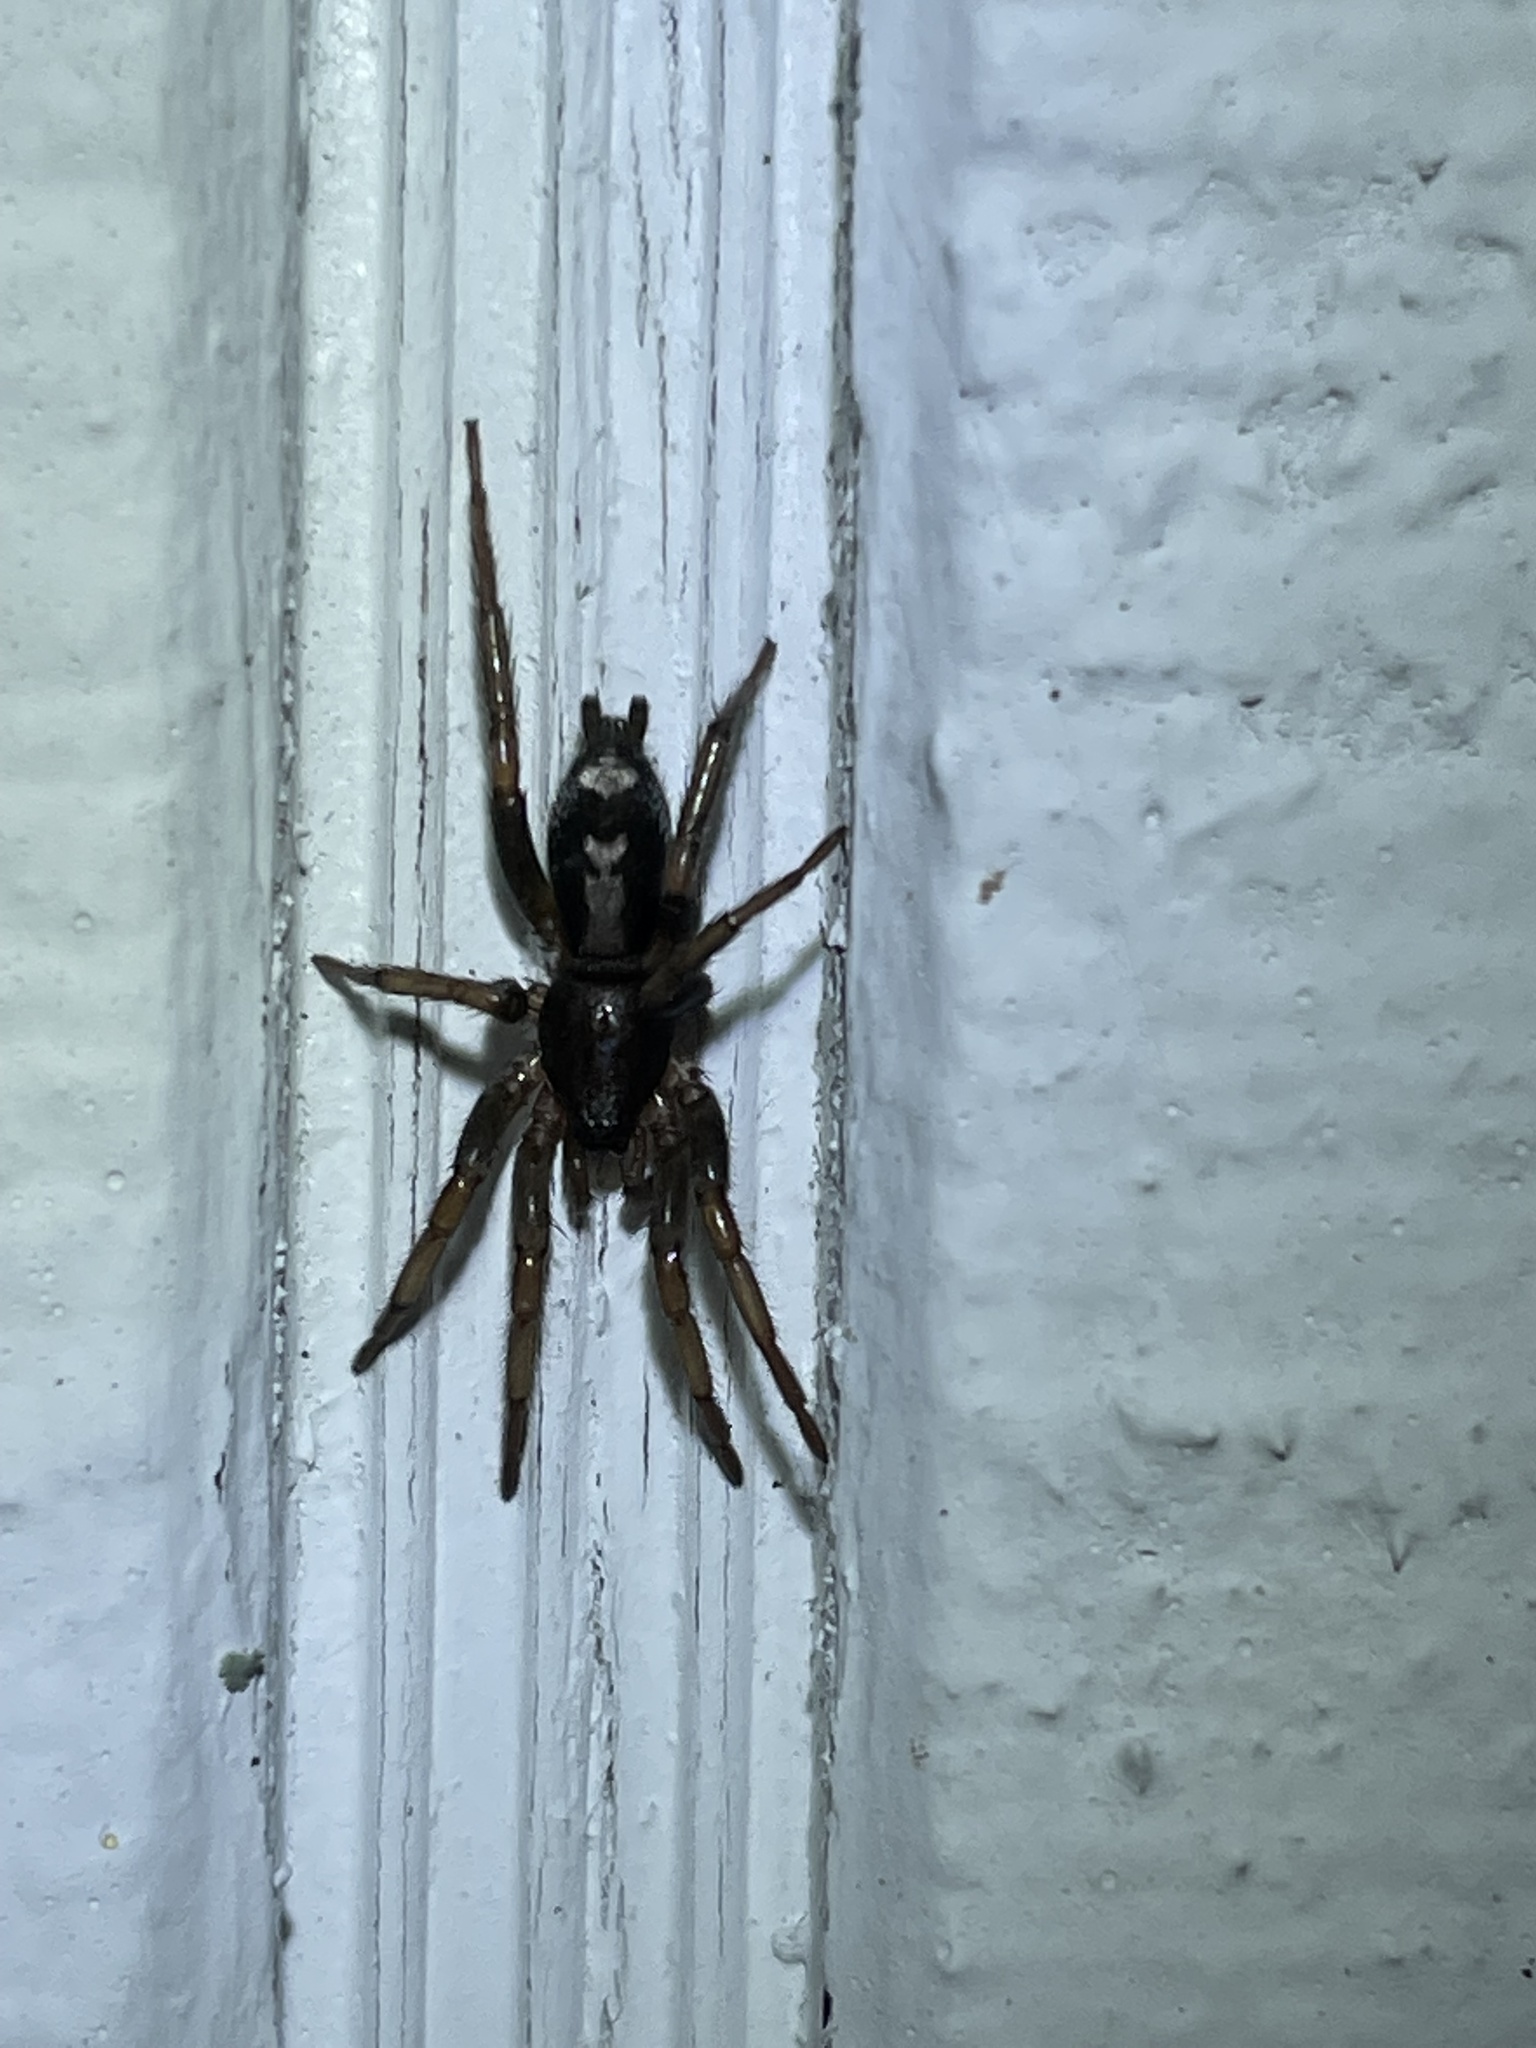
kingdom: Animalia
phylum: Arthropoda
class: Arachnida
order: Araneae
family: Gnaphosidae
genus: Herpyllus
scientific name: Herpyllus ecclesiasticus
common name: Eastern parson spider
